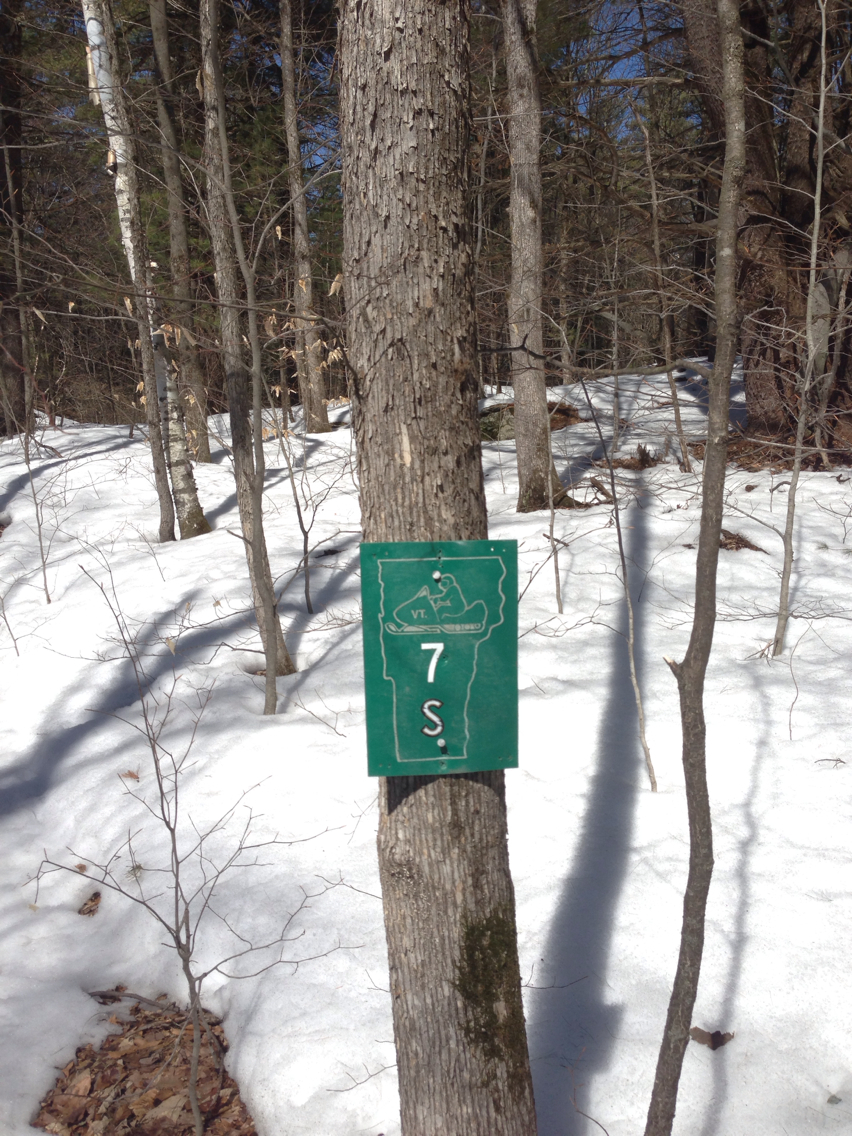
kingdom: Plantae
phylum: Tracheophyta
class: Magnoliopsida
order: Fagales
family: Betulaceae
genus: Ostrya
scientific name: Ostrya virginiana
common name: Ironwood
